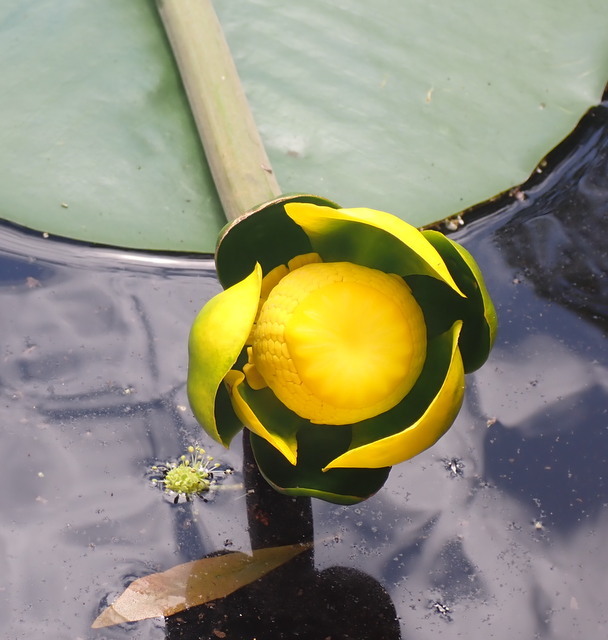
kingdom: Plantae
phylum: Tracheophyta
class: Magnoliopsida
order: Nymphaeales
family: Nymphaeaceae
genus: Nuphar
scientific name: Nuphar advena
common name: Spatter-dock
